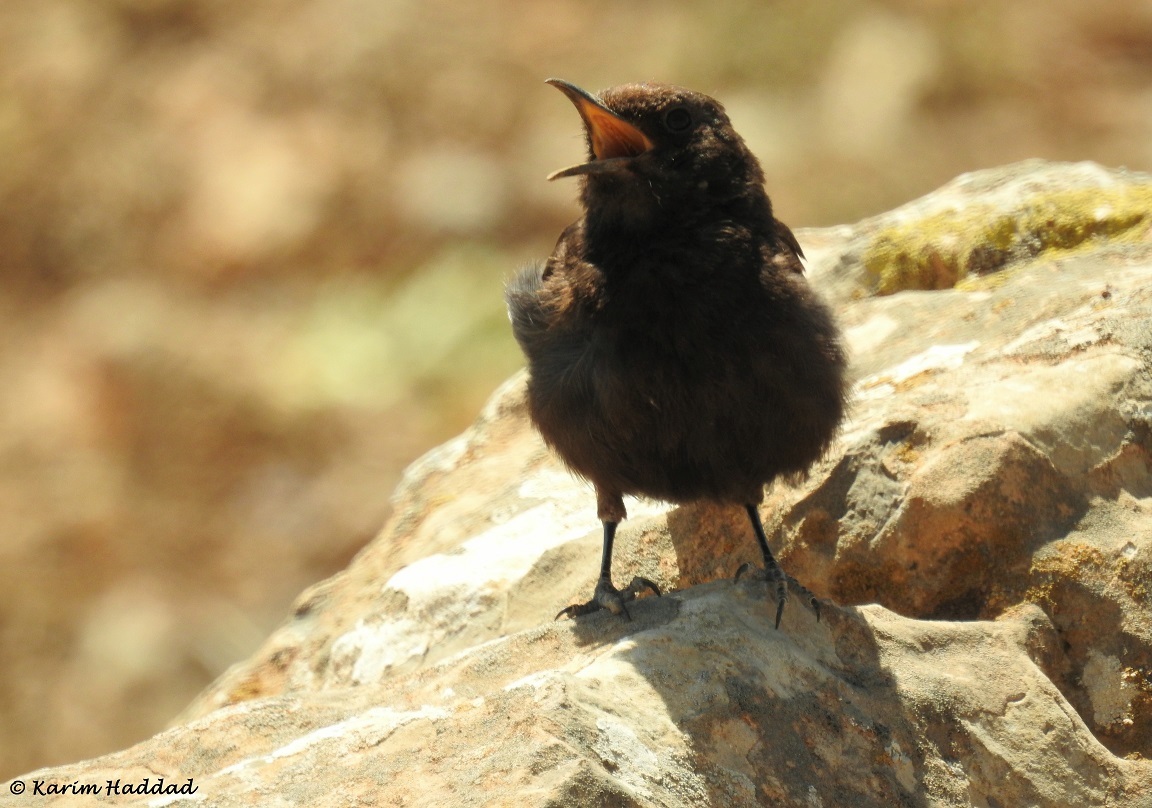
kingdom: Animalia
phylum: Chordata
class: Aves
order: Passeriformes
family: Muscicapidae
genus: Oenanthe
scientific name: Oenanthe leucura
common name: Black wheatear
